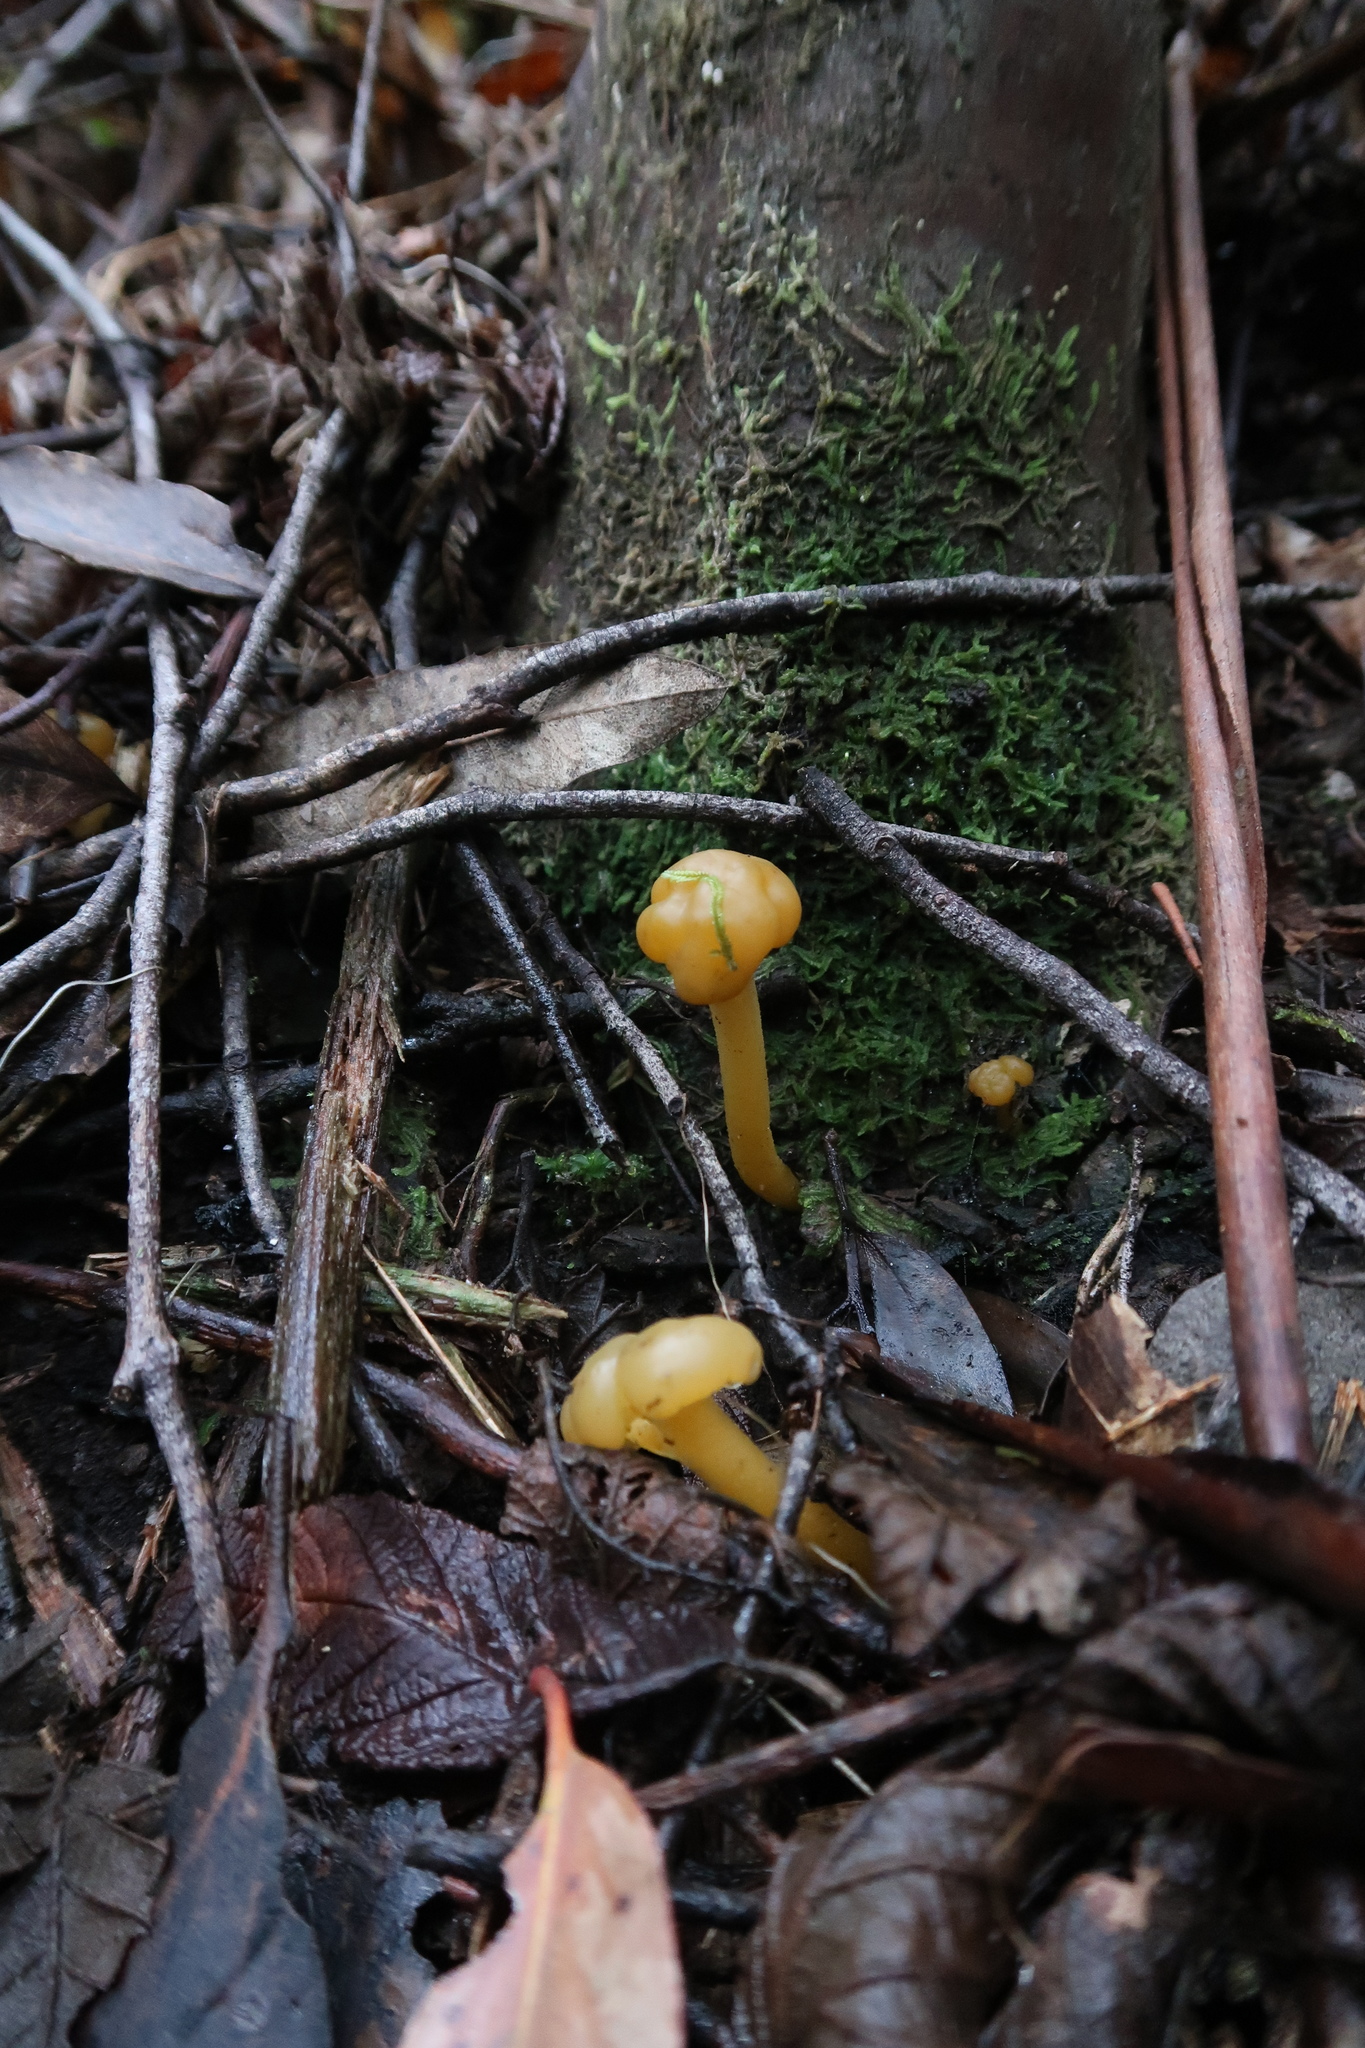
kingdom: Fungi
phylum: Ascomycota
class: Leotiomycetes
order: Leotiales
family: Leotiaceae
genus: Leotia
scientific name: Leotia lubrica
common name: Jellybaby
